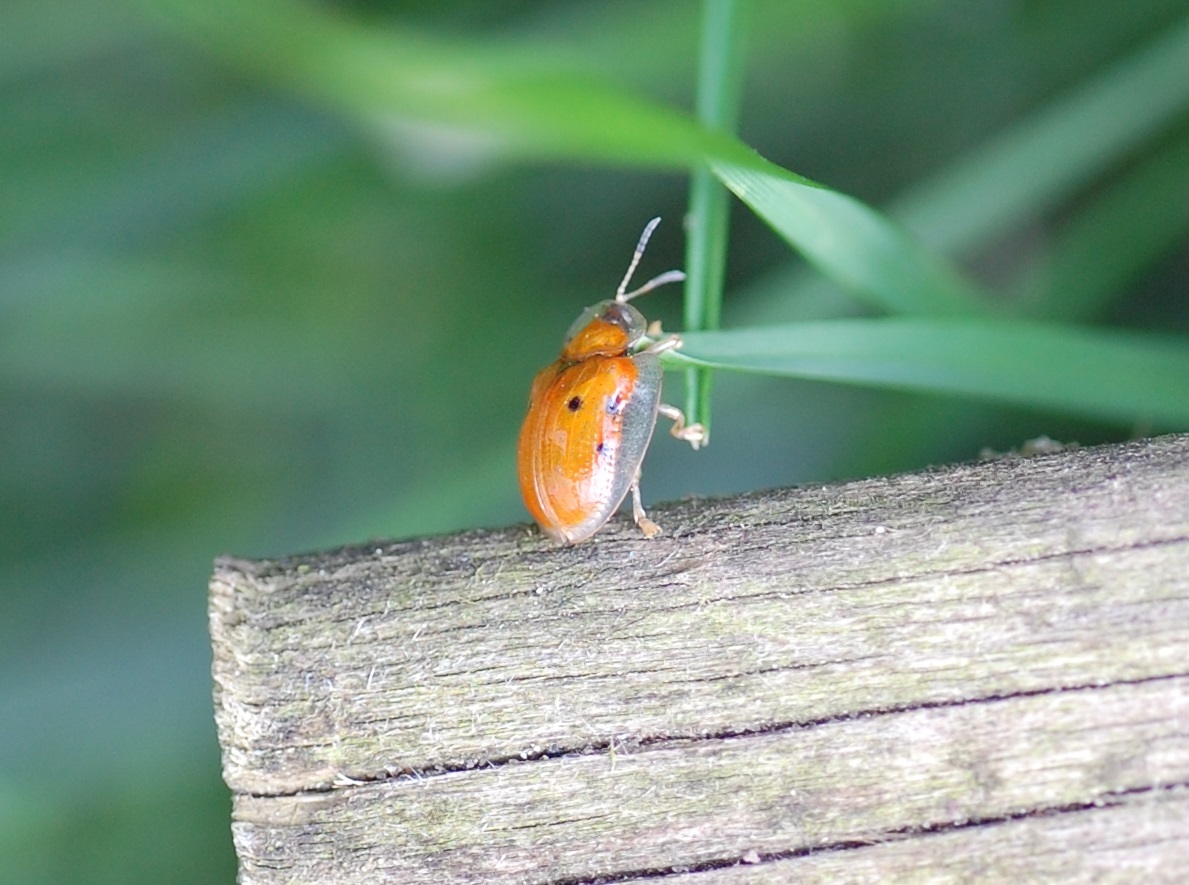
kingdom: Animalia
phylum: Arthropoda
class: Insecta
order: Coleoptera
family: Chrysomelidae
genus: Charidotella
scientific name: Charidotella sexpunctata
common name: Golden tortoise beetle
